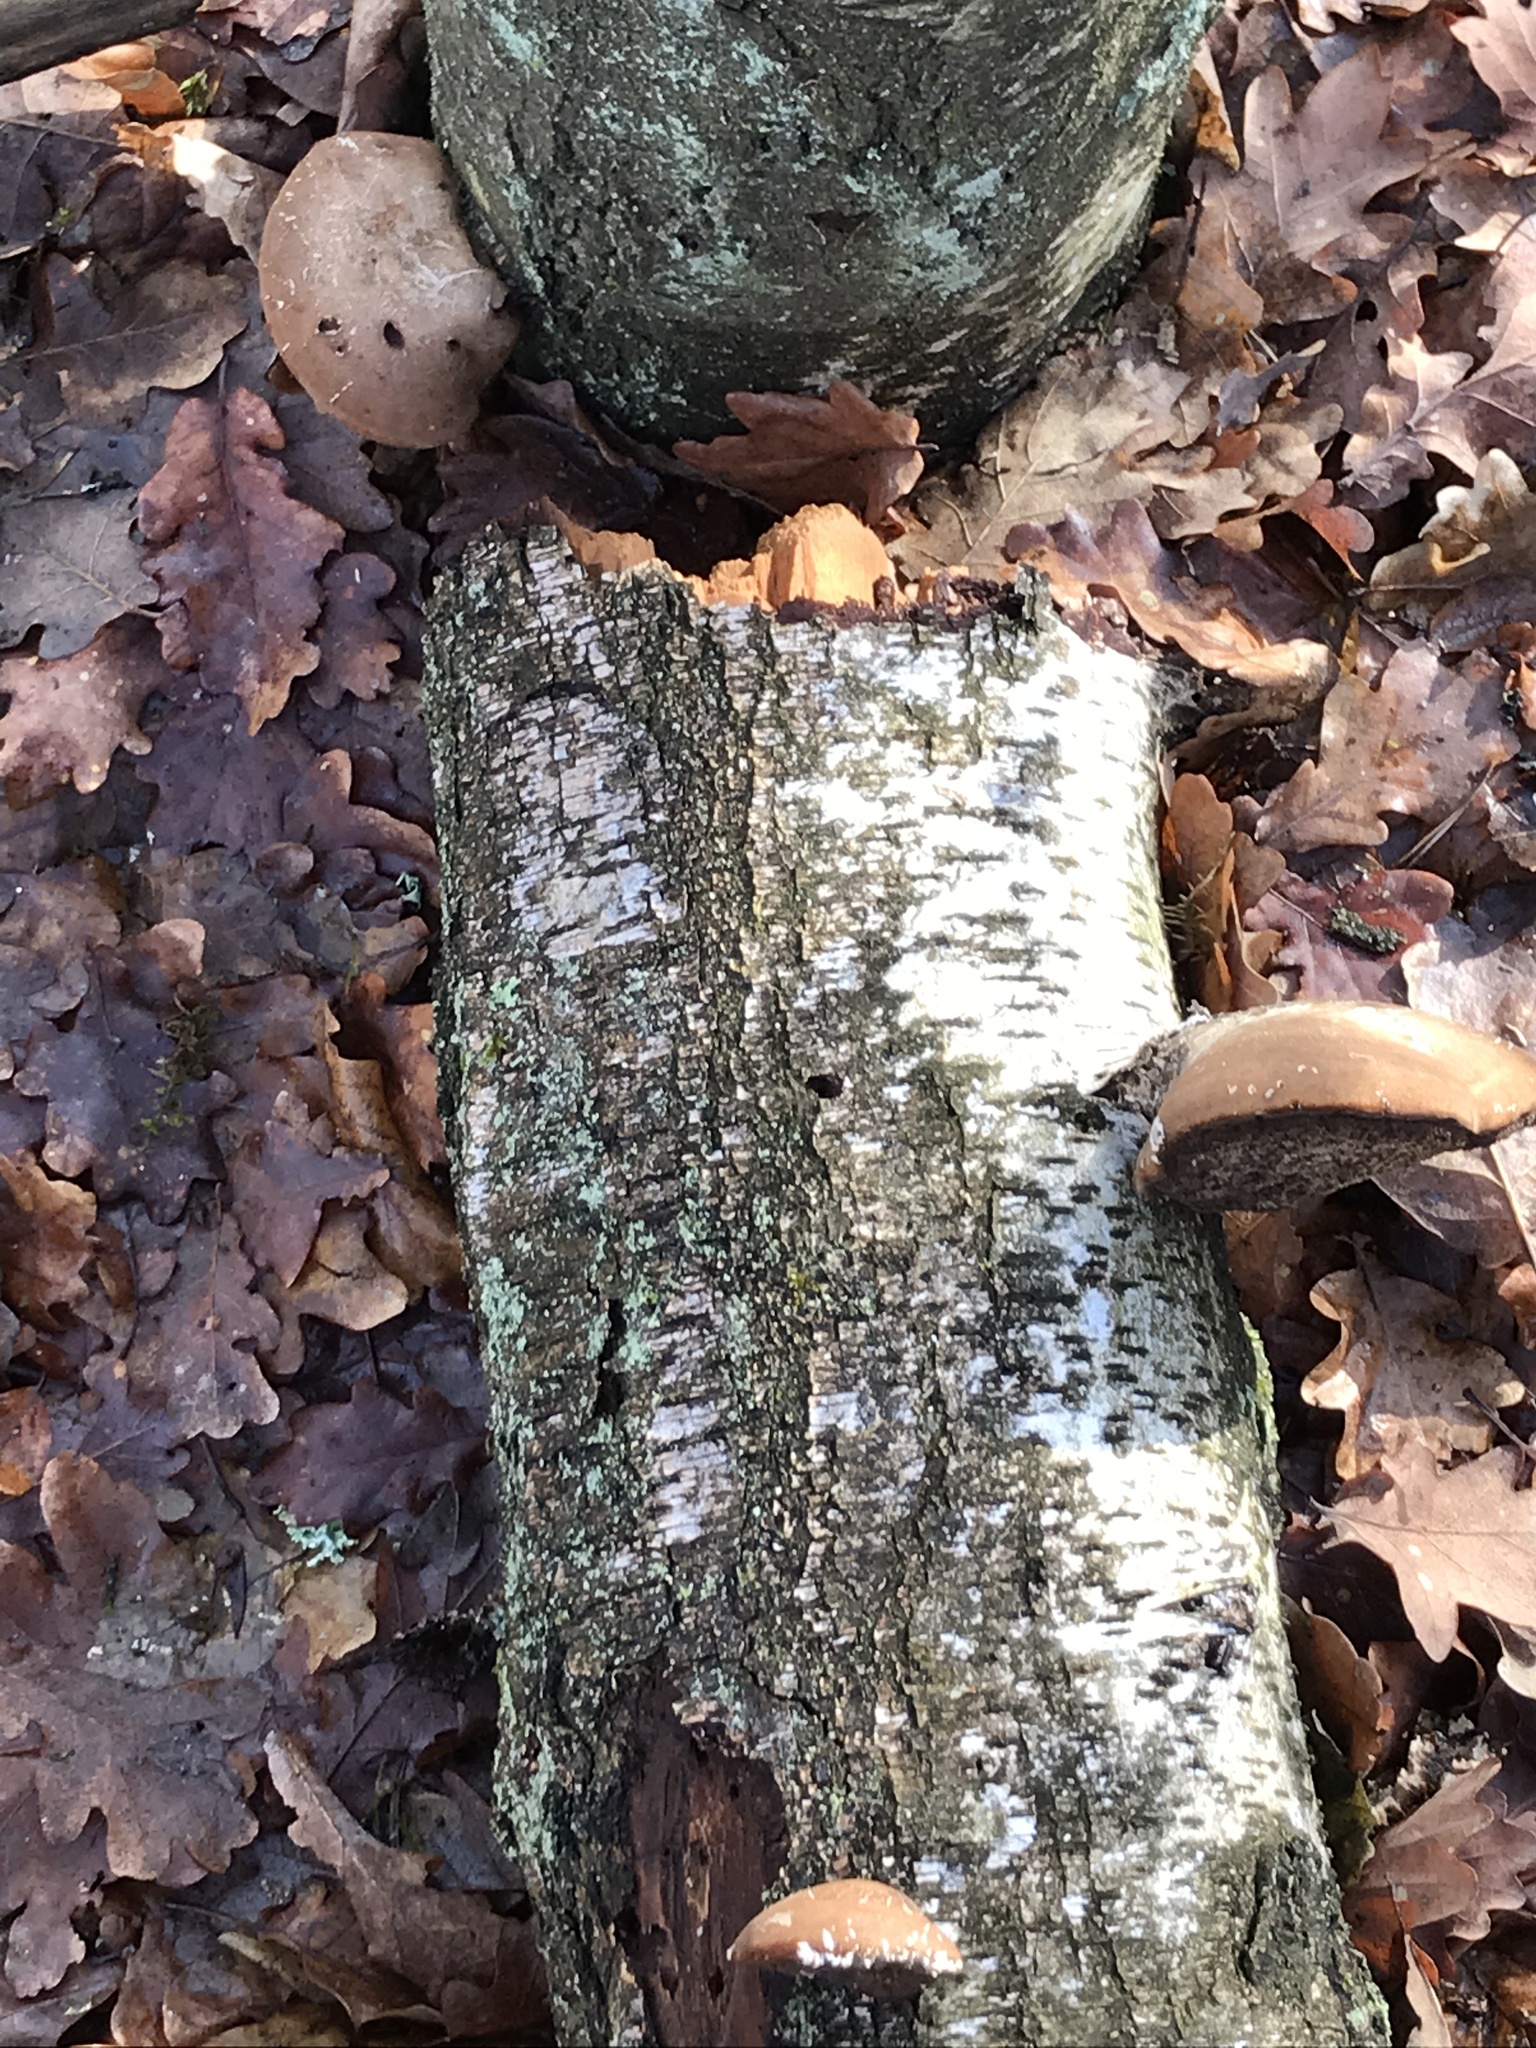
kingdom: Fungi
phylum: Basidiomycota
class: Agaricomycetes
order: Polyporales
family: Fomitopsidaceae
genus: Fomitopsis
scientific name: Fomitopsis betulina
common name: Birch polypore
